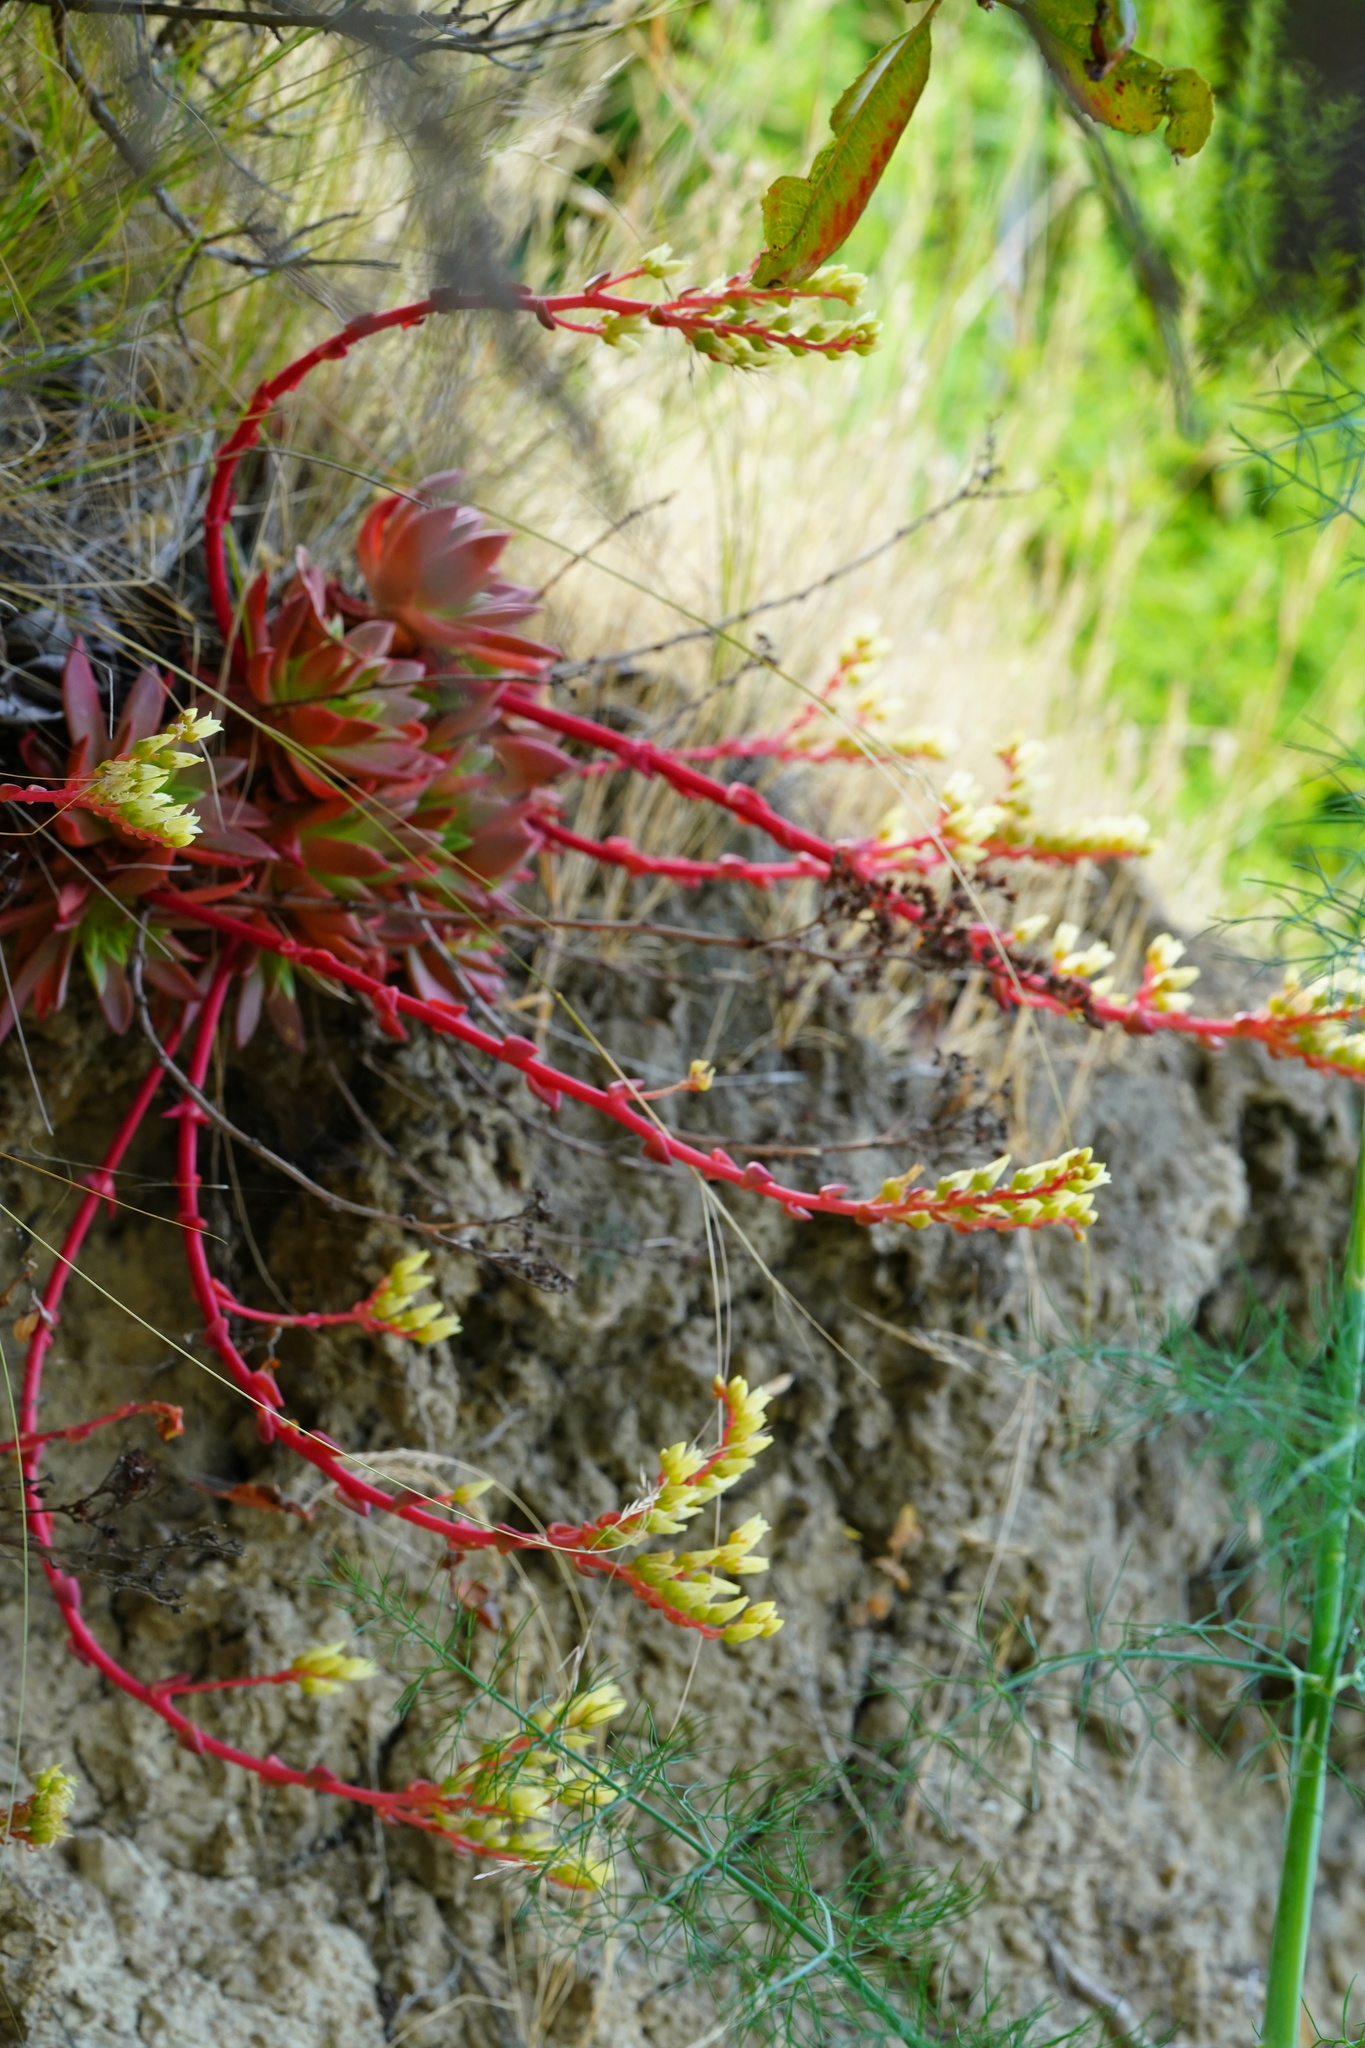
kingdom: Plantae
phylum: Tracheophyta
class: Magnoliopsida
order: Saxifragales
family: Crassulaceae
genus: Dudleya
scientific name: Dudleya farinosa
